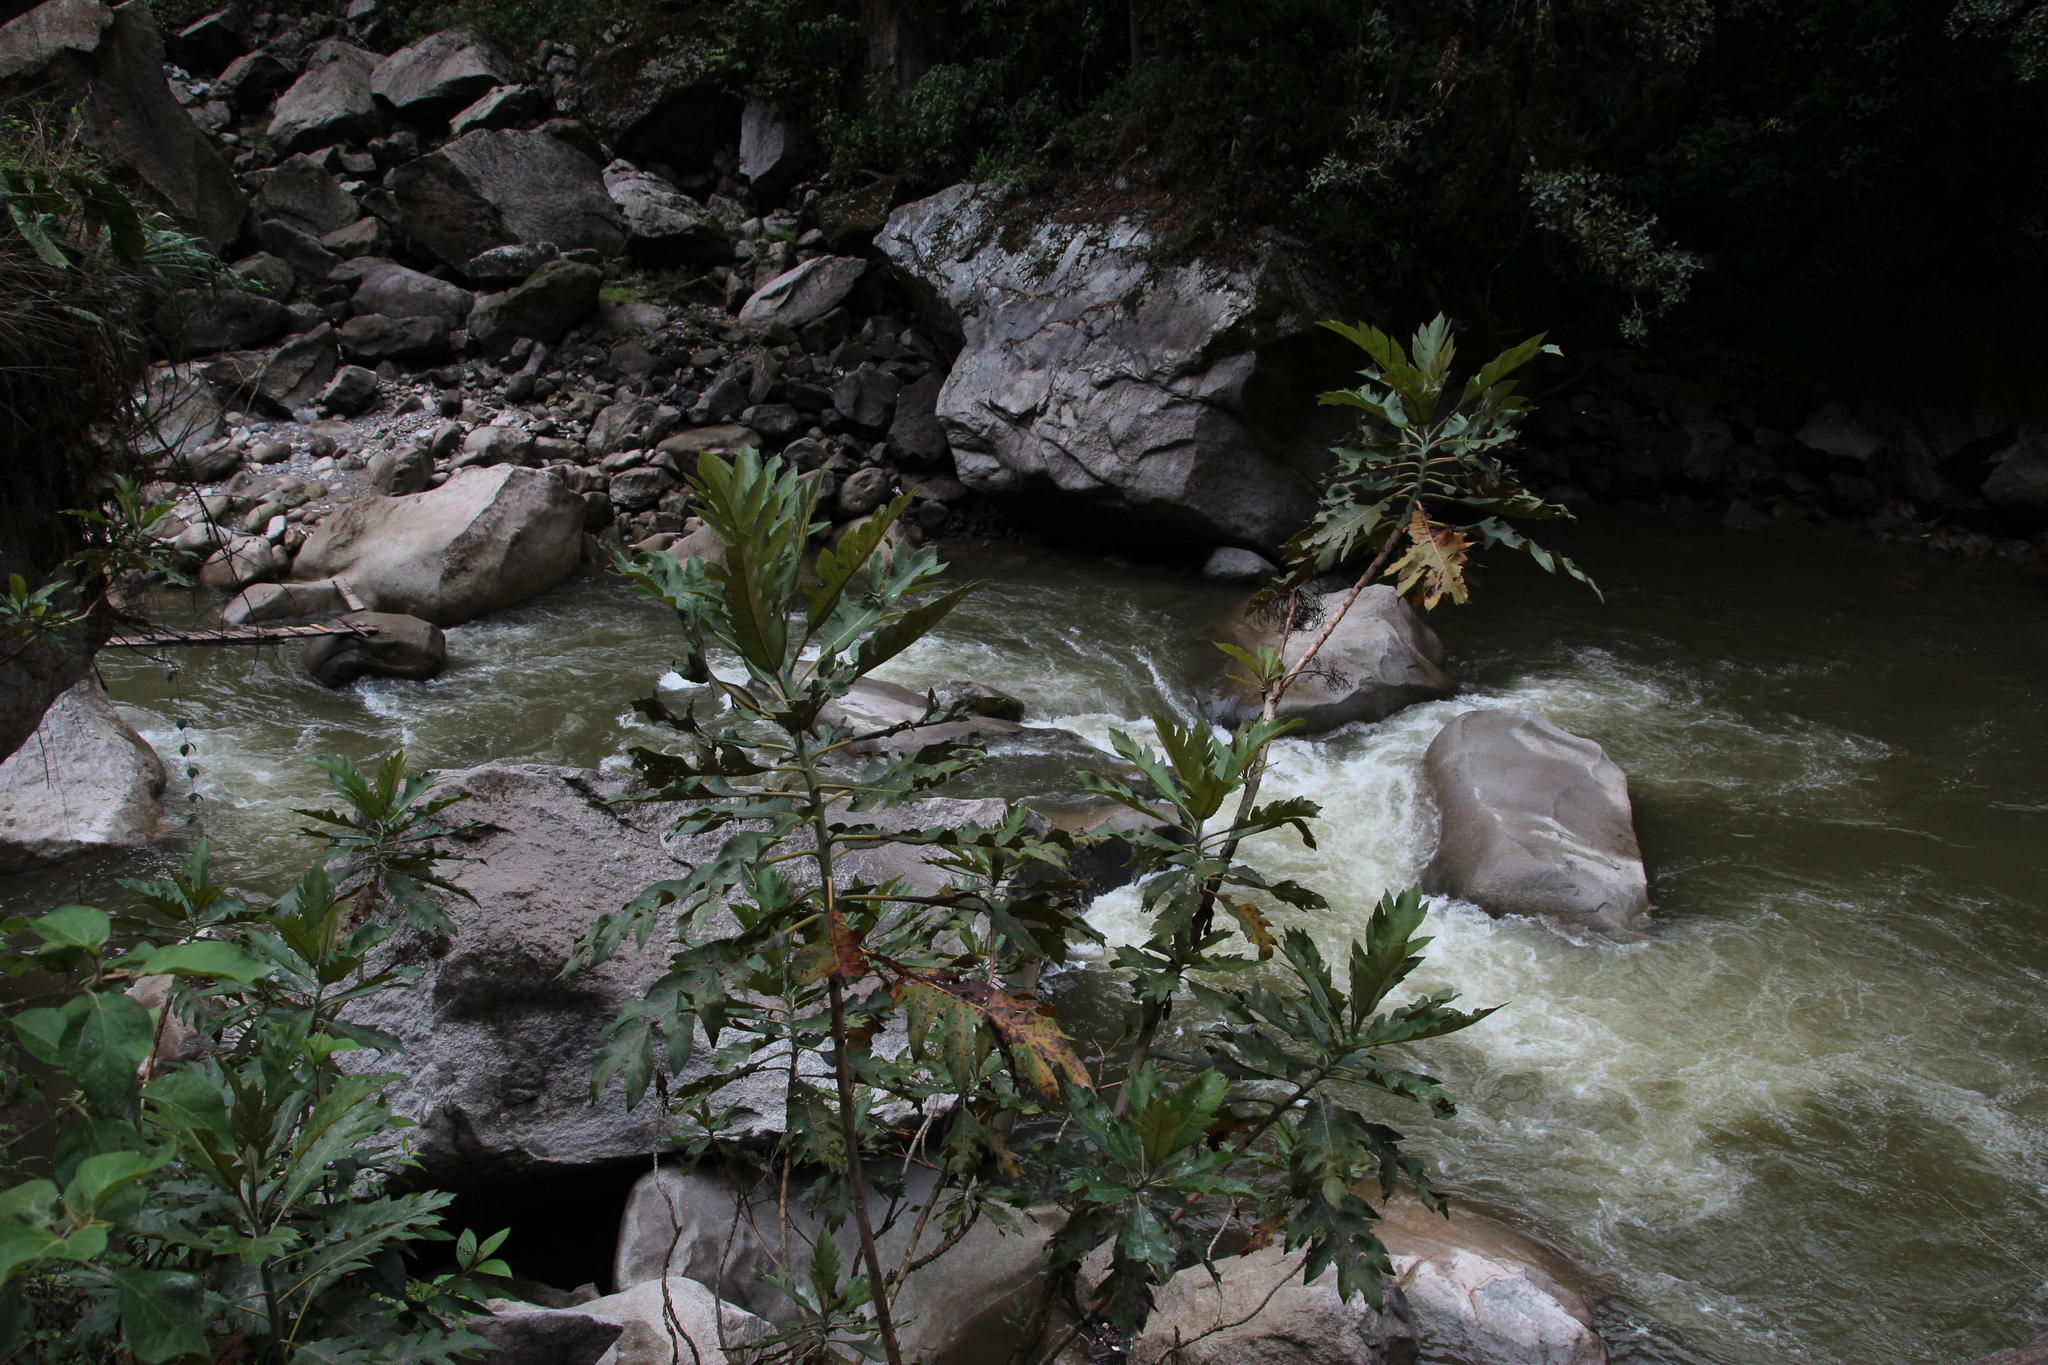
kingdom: Plantae
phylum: Tracheophyta
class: Magnoliopsida
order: Ranunculales
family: Papaveraceae
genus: Bocconia
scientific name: Bocconia frutescens
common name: Tree poppy
